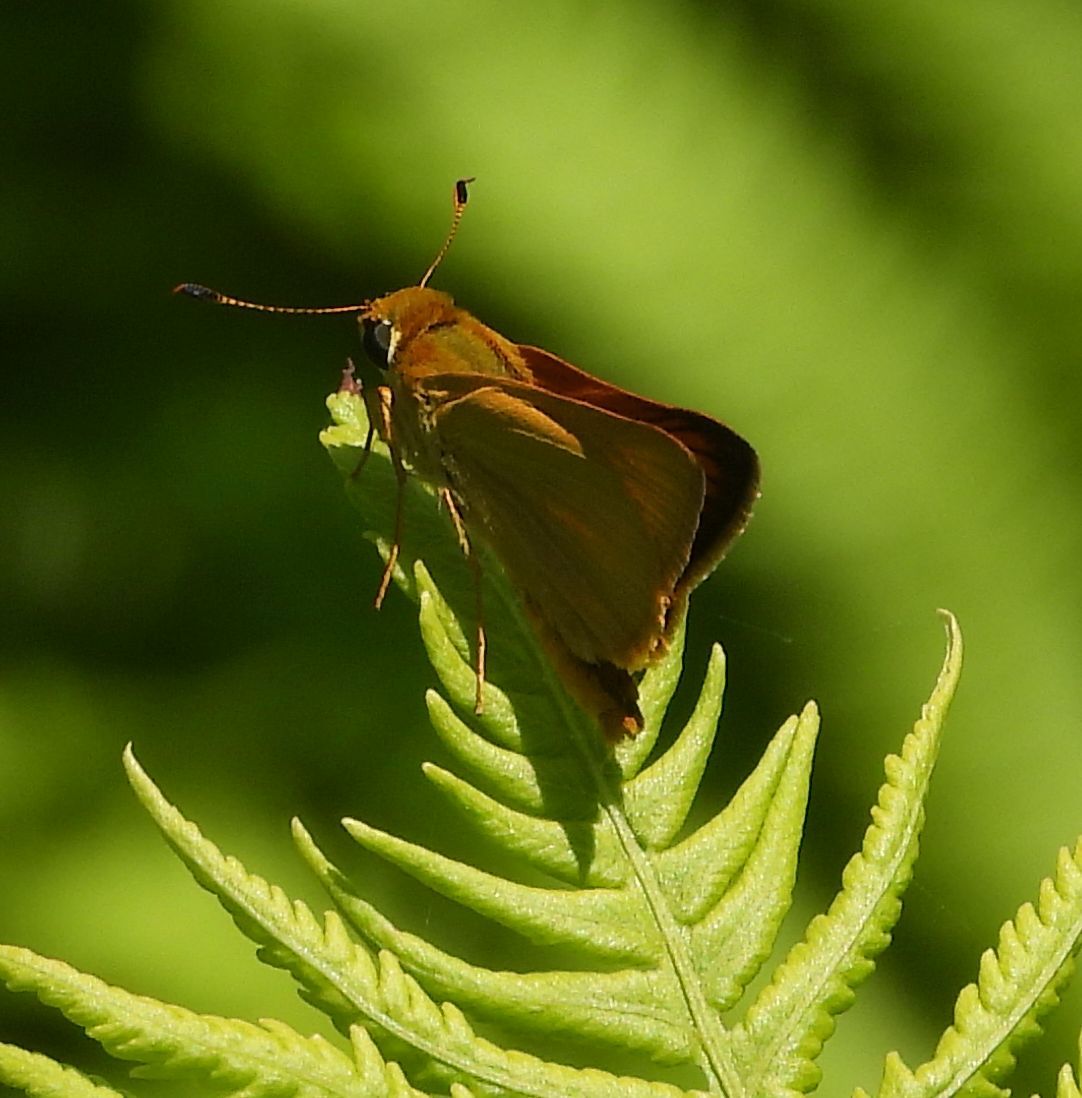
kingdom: Animalia
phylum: Arthropoda
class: Insecta
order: Lepidoptera
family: Hesperiidae
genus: Atrytone
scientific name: Atrytone delaware
